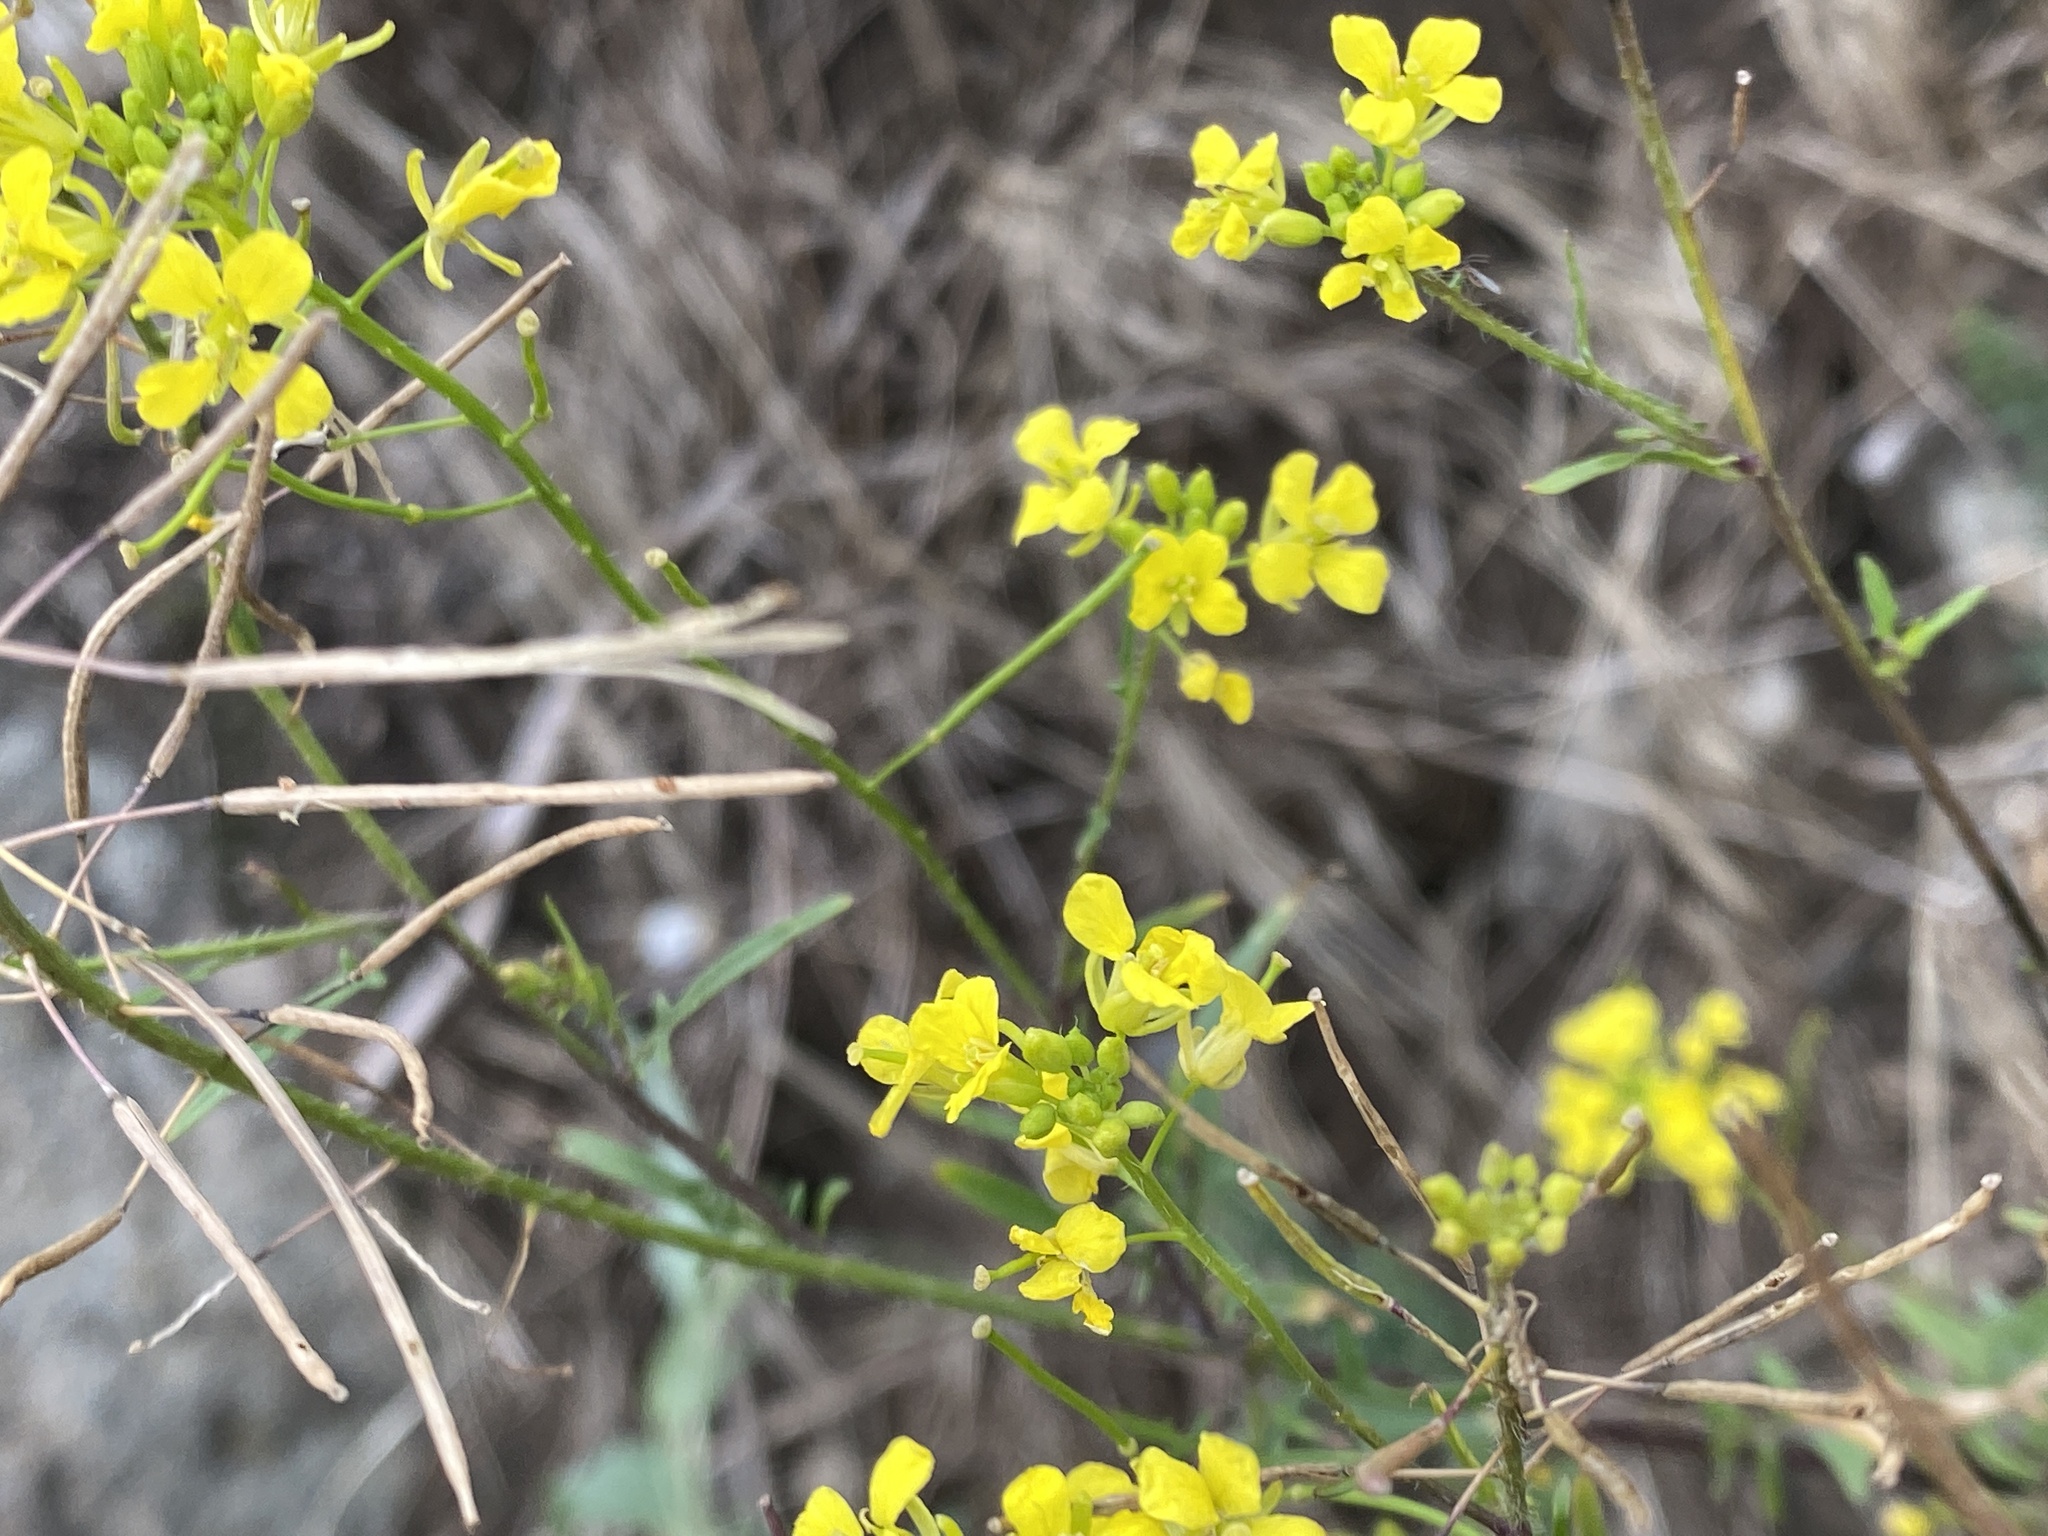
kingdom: Plantae
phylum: Tracheophyta
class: Magnoliopsida
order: Brassicales
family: Brassicaceae
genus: Sisymbrium
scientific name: Sisymbrium loeselii
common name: False london-rocket
